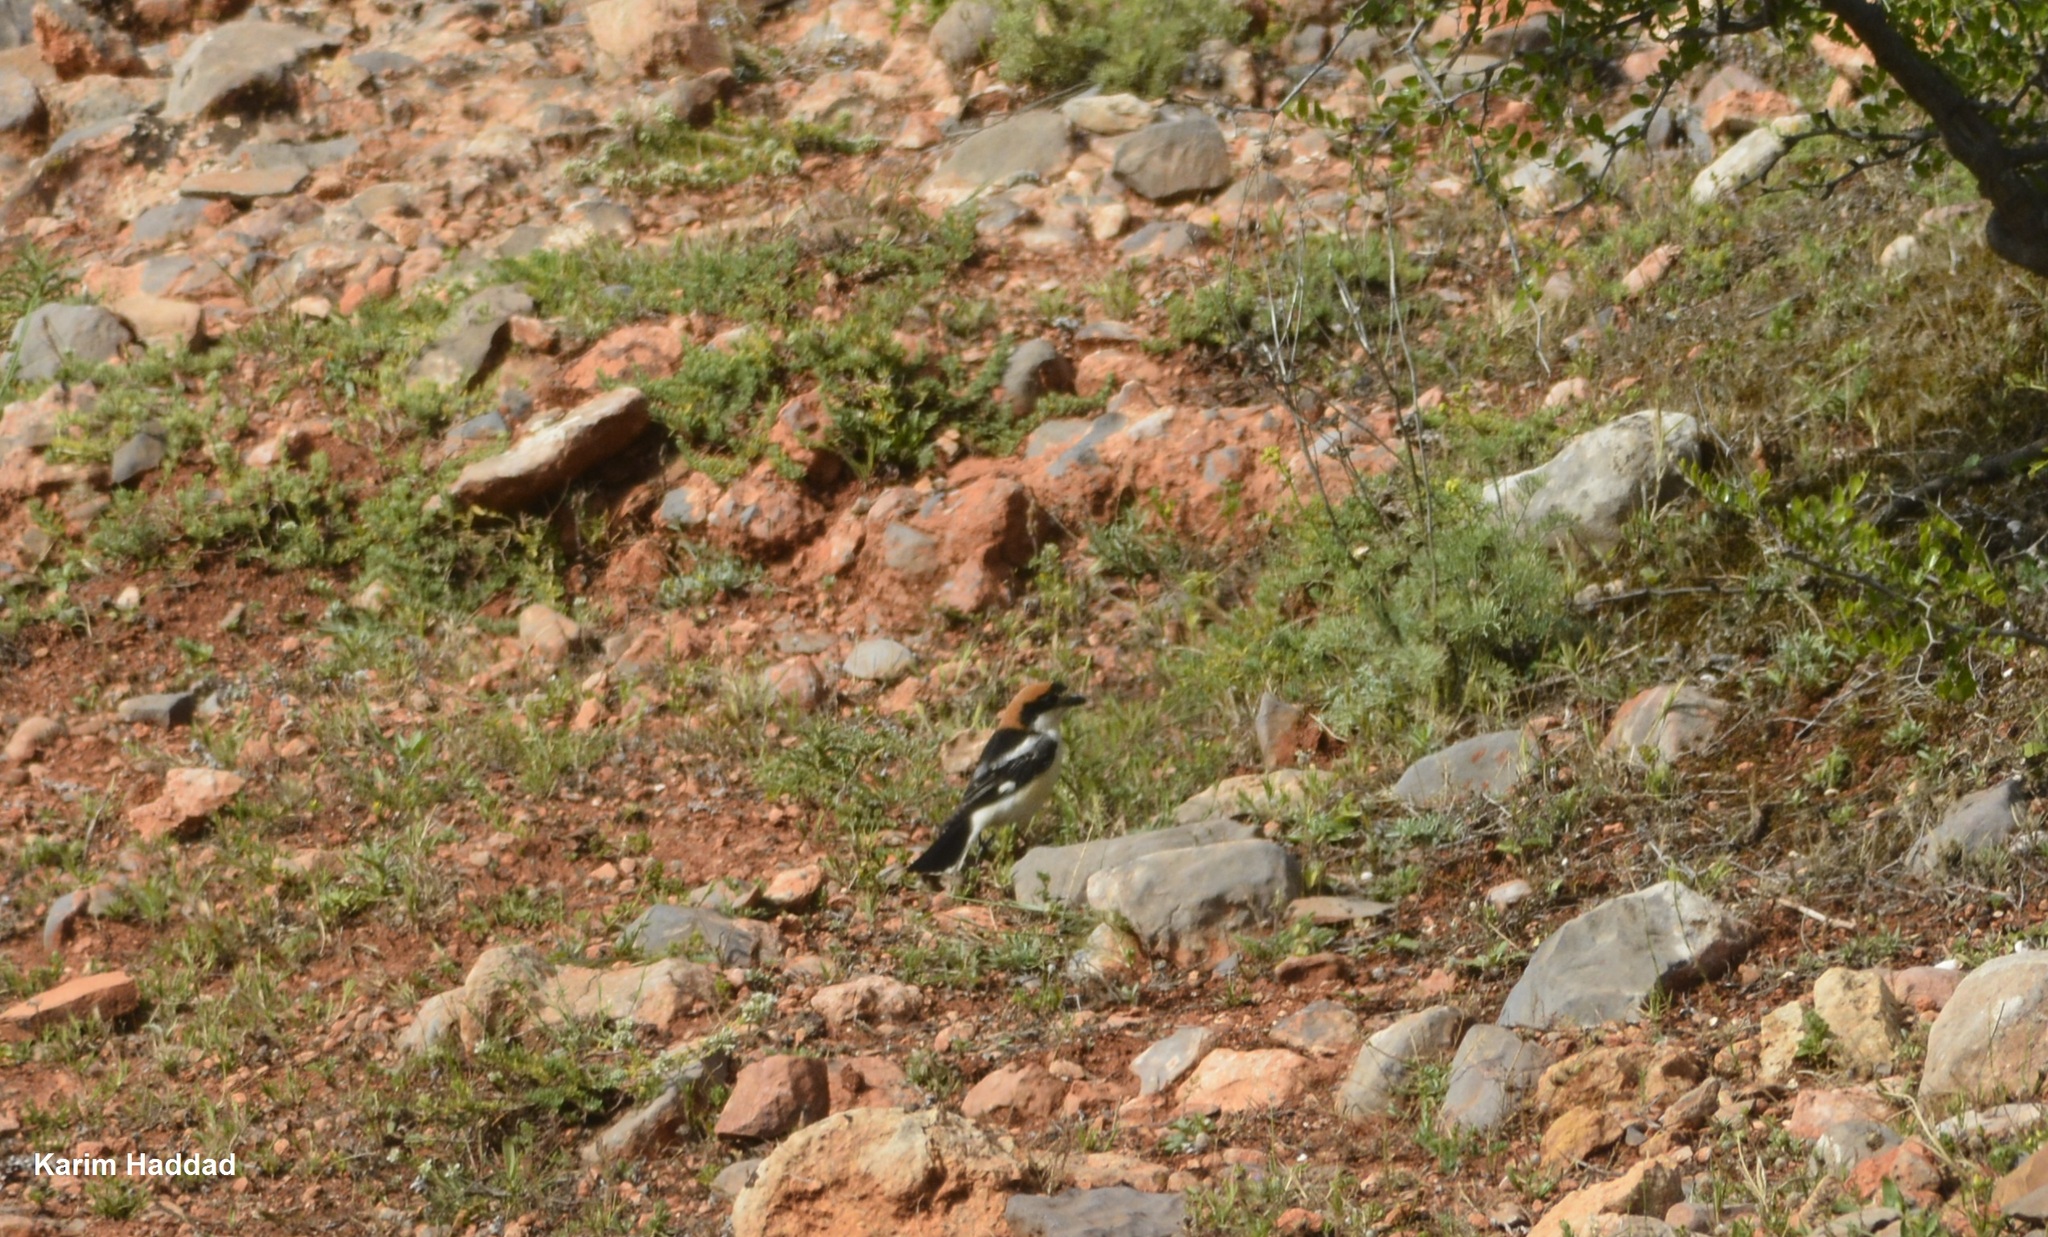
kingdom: Animalia
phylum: Chordata
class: Aves
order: Passeriformes
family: Laniidae
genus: Lanius
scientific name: Lanius senator
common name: Woodchat shrike
